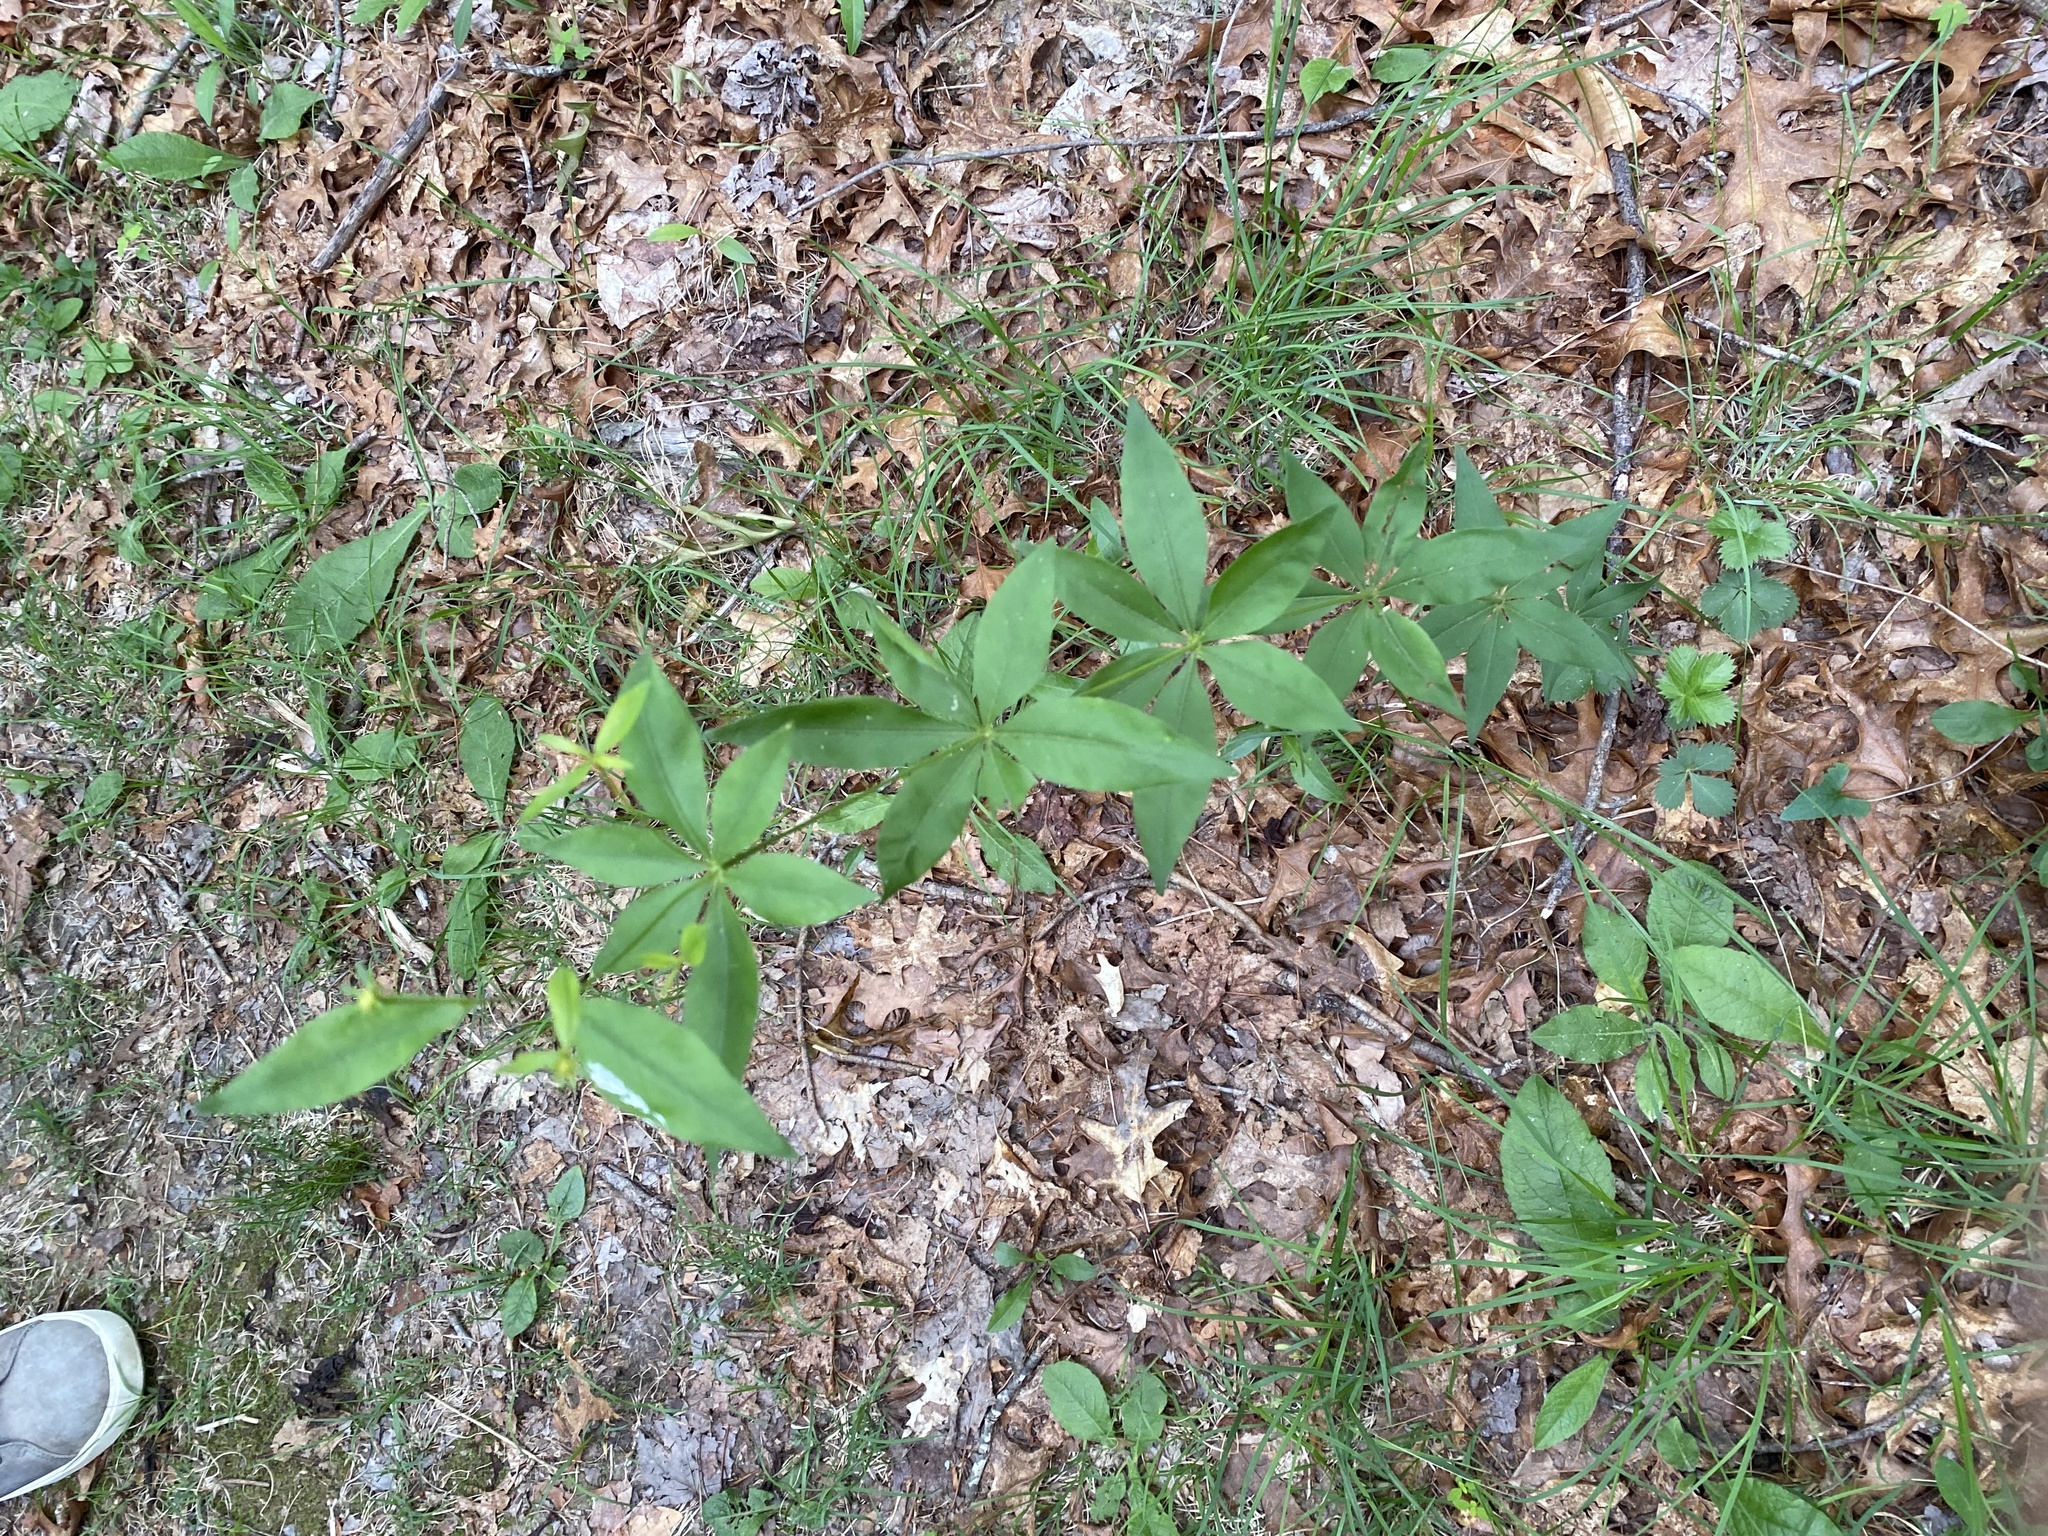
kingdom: Plantae
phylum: Tracheophyta
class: Magnoliopsida
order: Ericales
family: Primulaceae
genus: Lysimachia
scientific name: Lysimachia quadrifolia
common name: Whorled loosestrife
